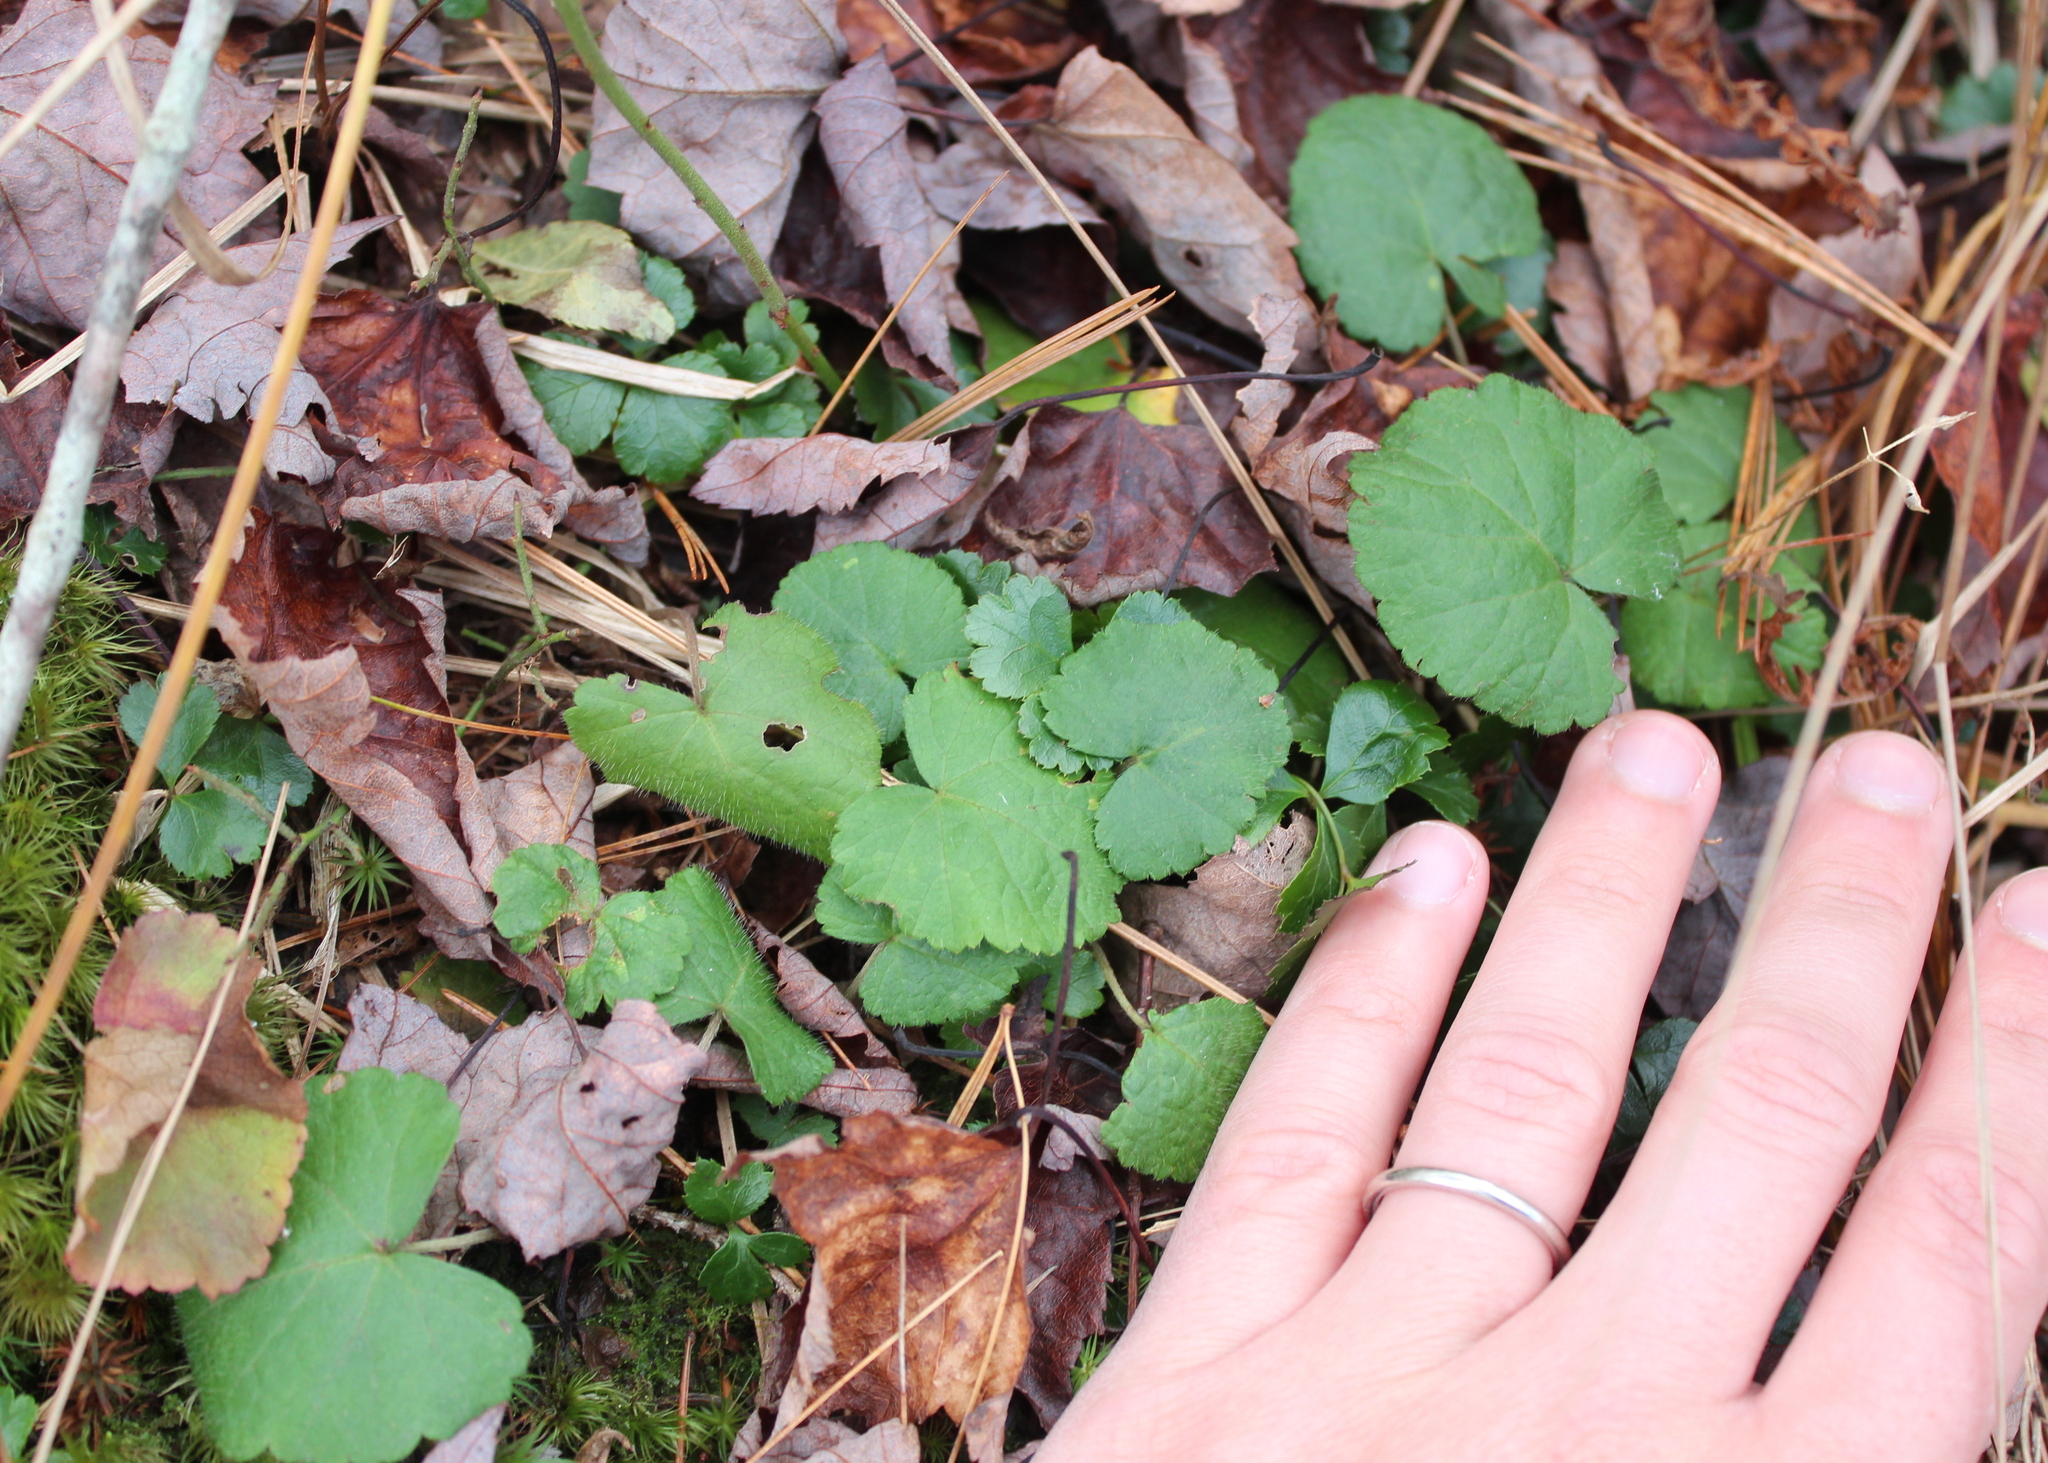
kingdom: Plantae
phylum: Tracheophyta
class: Magnoliopsida
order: Rosales
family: Rosaceae
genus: Dalibarda
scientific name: Dalibarda repens
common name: Dewdrop
